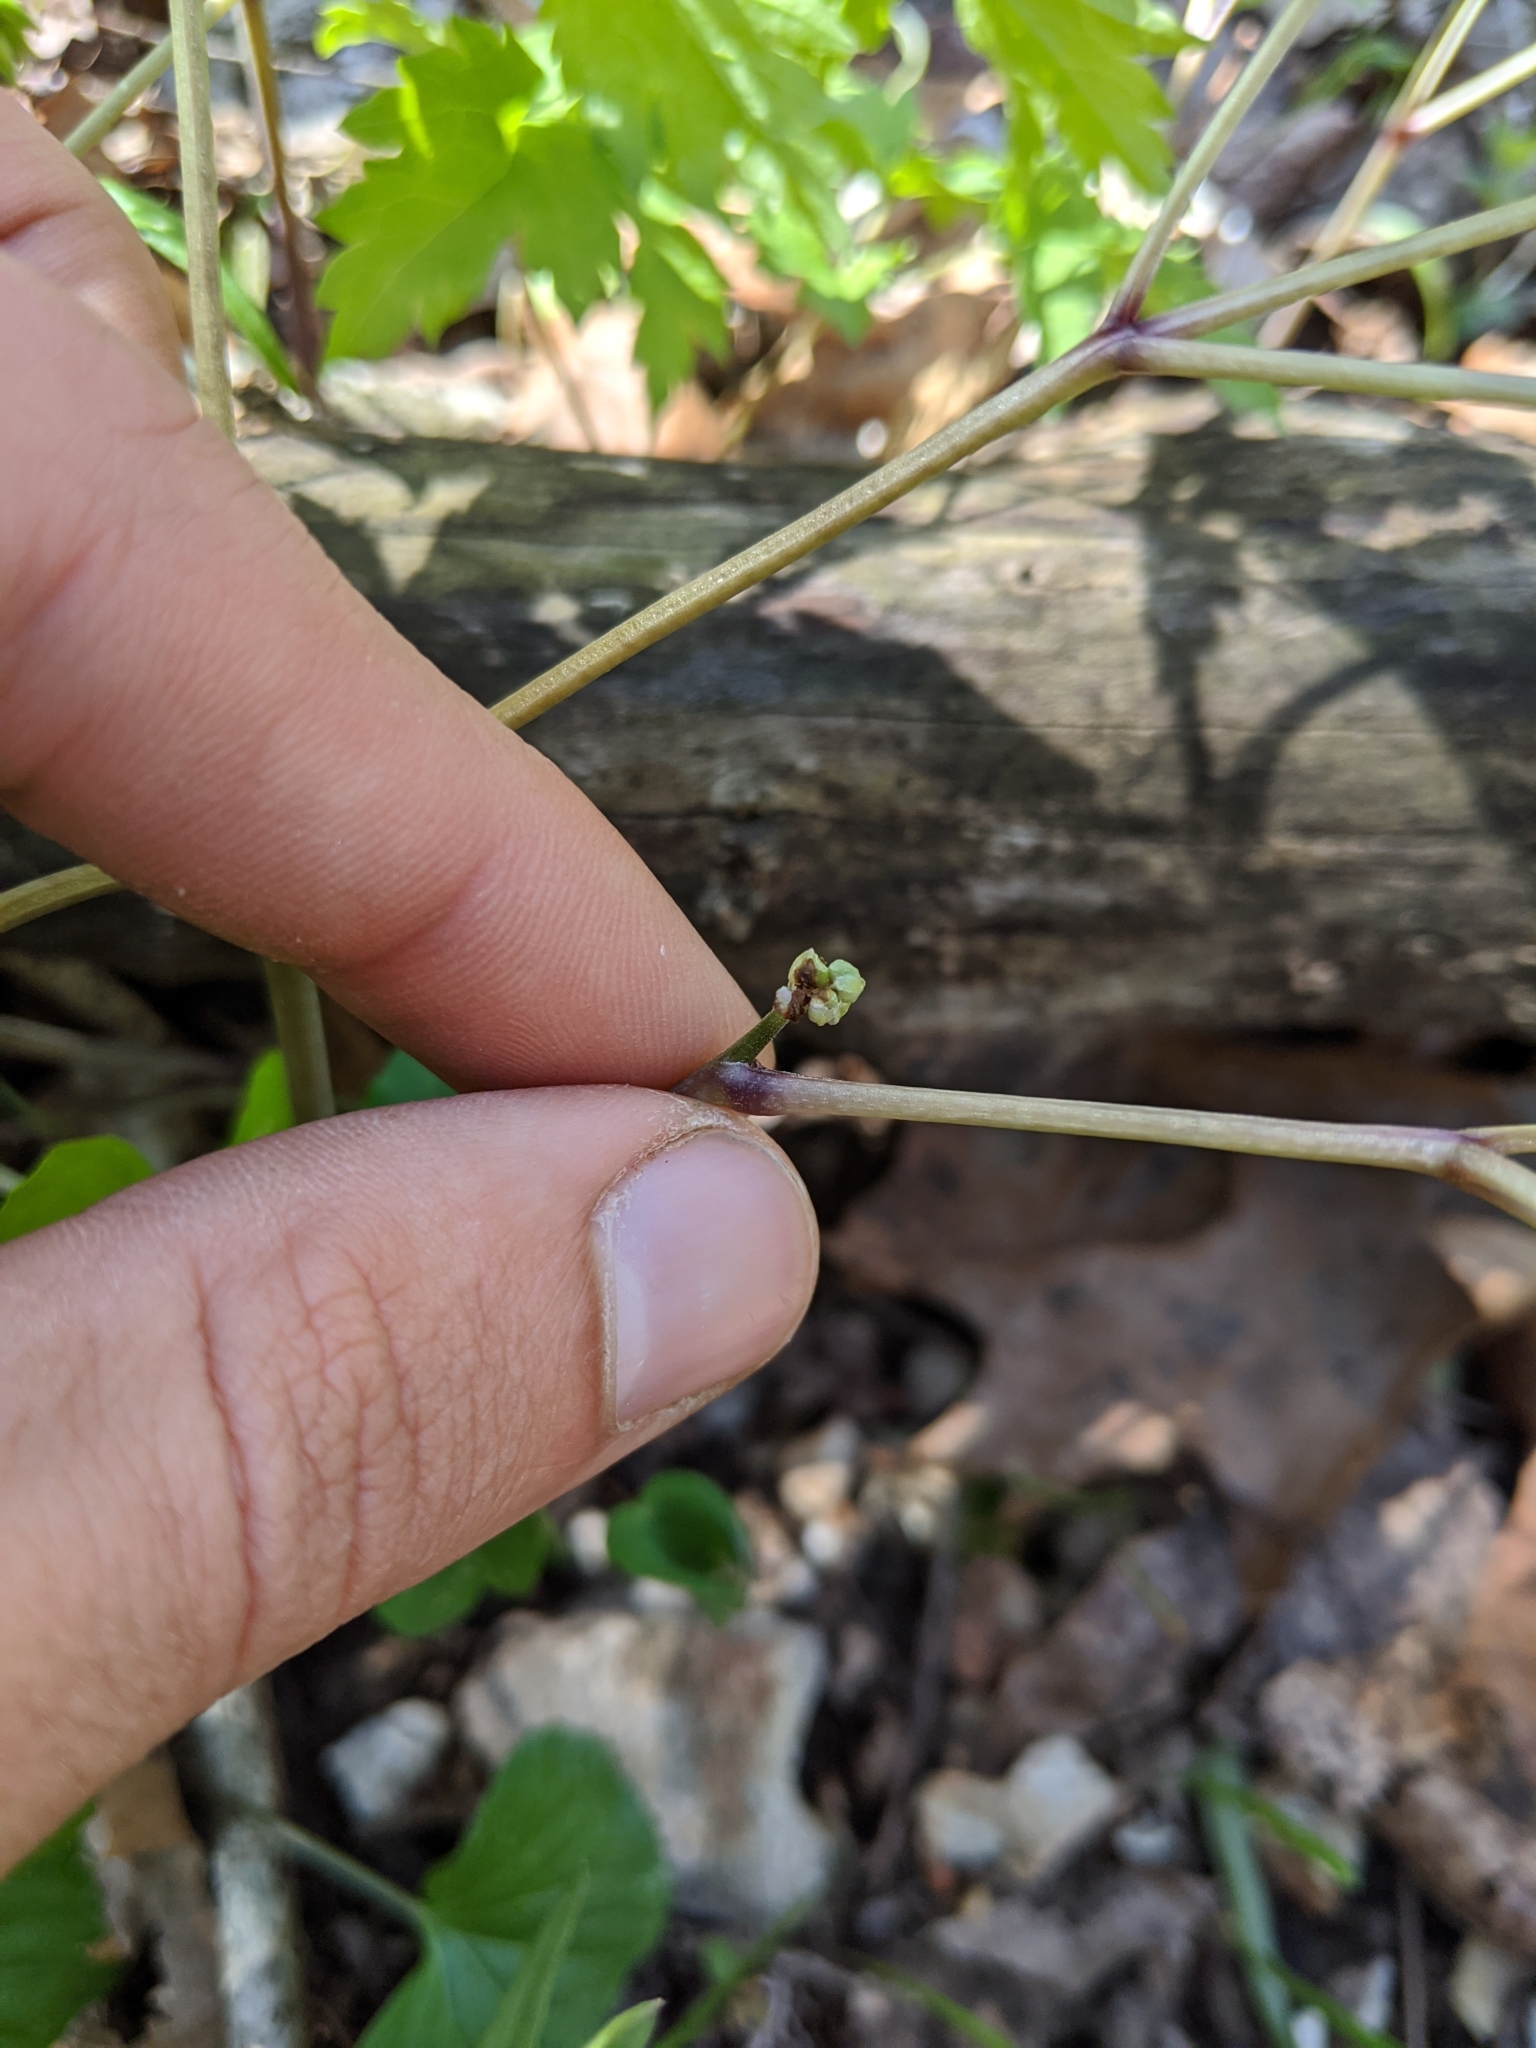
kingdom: Plantae
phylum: Tracheophyta
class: Magnoliopsida
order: Ranunculales
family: Ranunculaceae
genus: Actaea
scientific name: Actaea pachypoda
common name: Doll's-eyes
